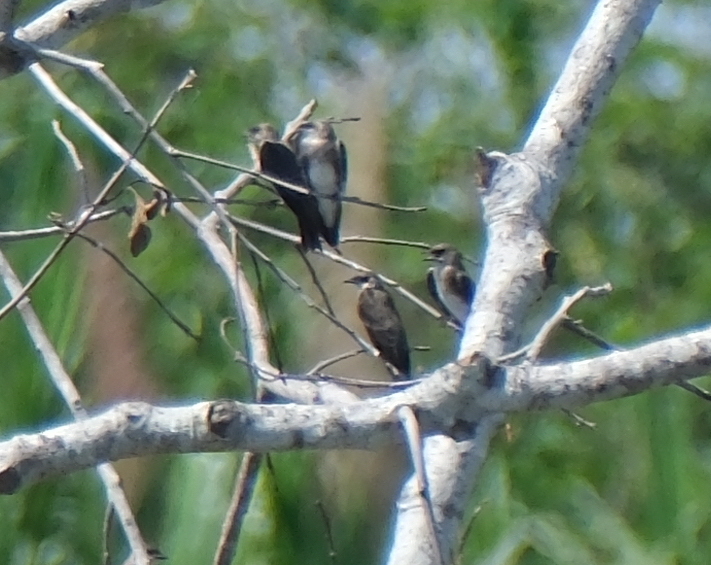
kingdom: Animalia
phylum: Chordata
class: Aves
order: Passeriformes
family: Hirundinidae
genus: Progne
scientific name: Progne tapera
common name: Brown-chested martin
